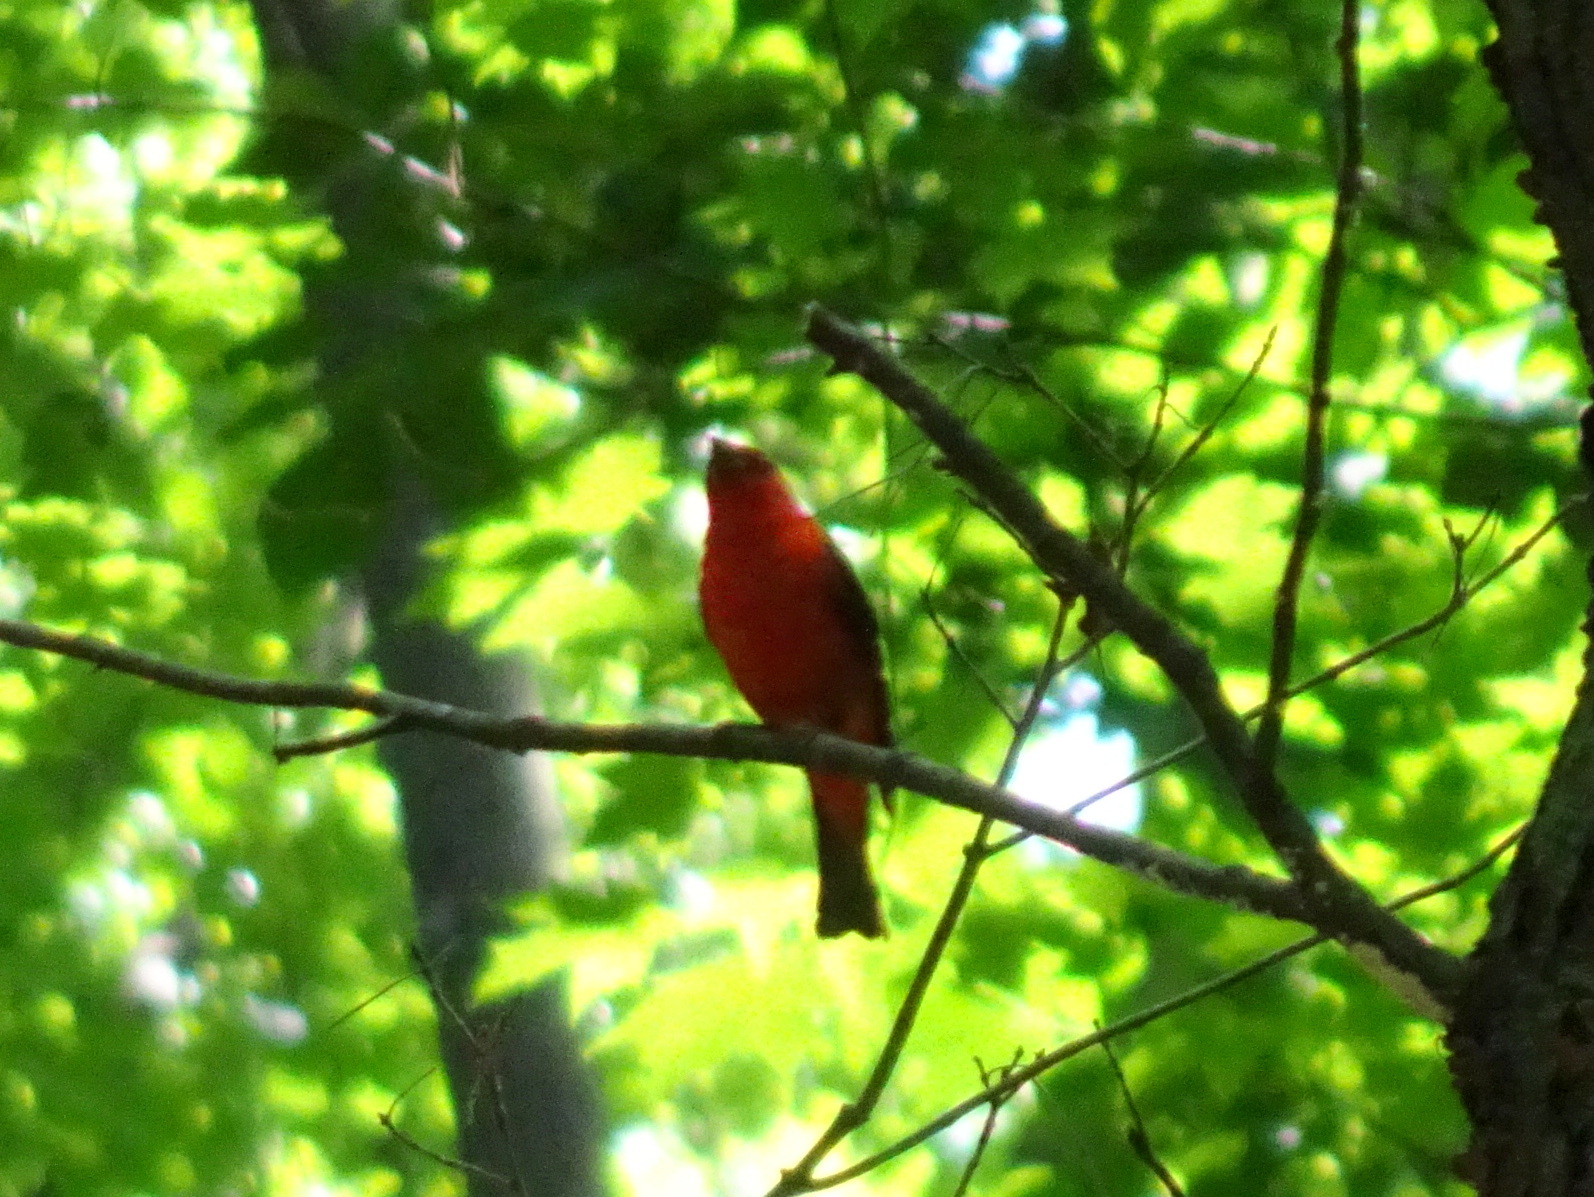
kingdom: Animalia
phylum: Chordata
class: Aves
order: Passeriformes
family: Cardinalidae
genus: Piranga
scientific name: Piranga olivacea
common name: Scarlet tanager
